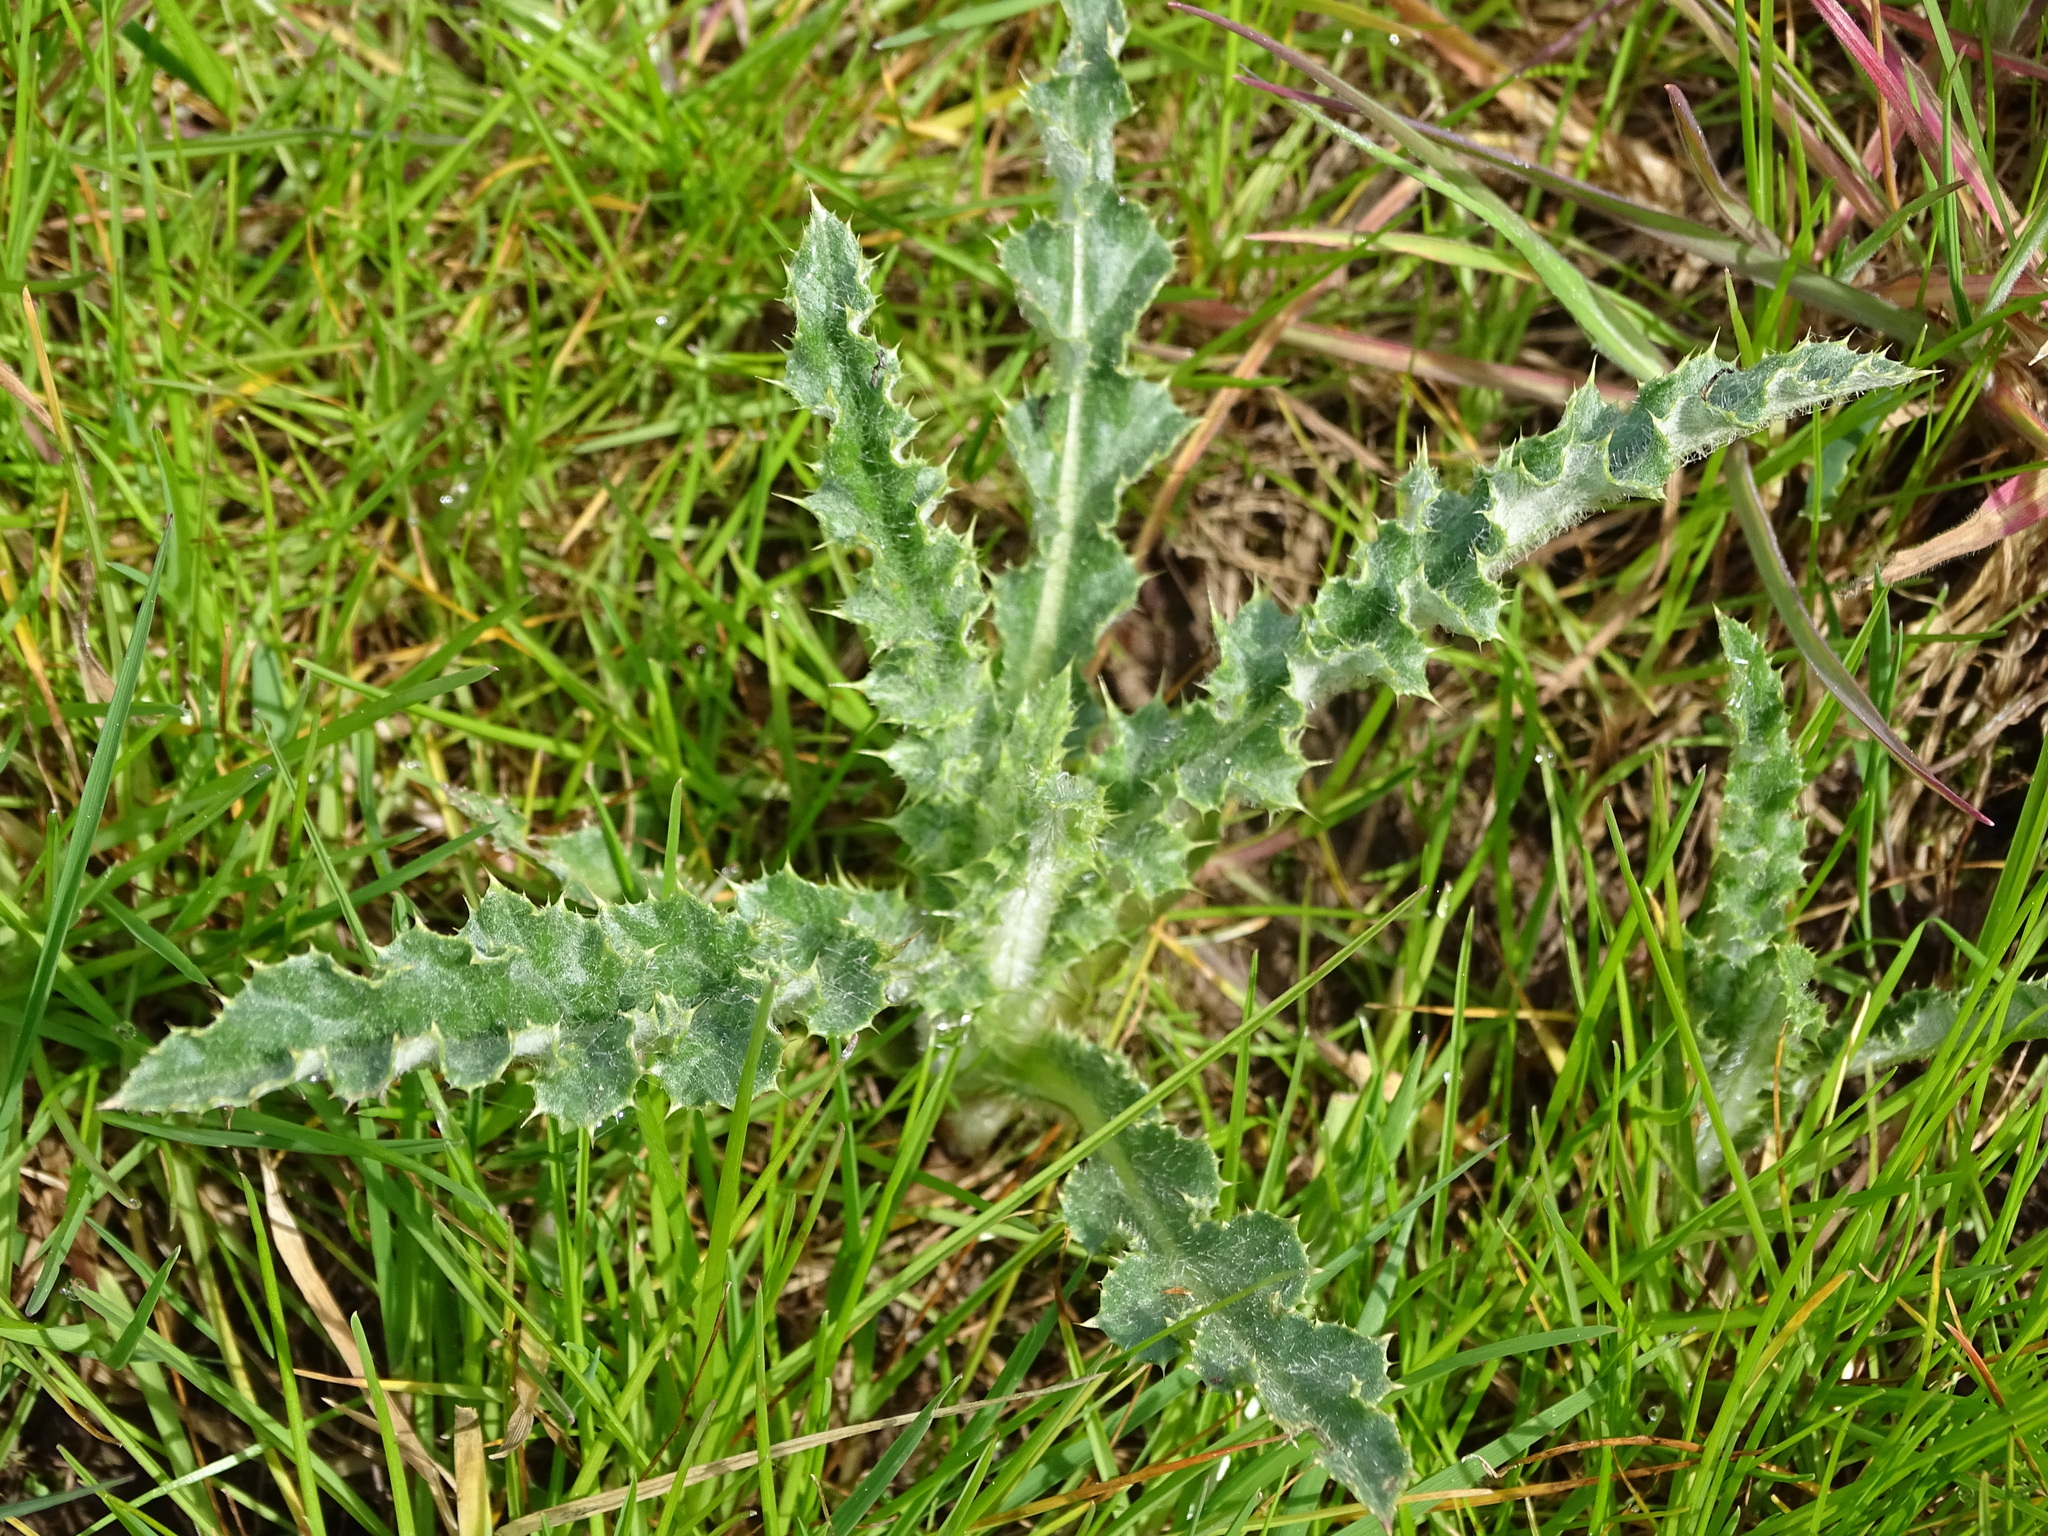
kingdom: Plantae
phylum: Tracheophyta
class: Magnoliopsida
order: Asterales
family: Asteraceae
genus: Cirsium
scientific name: Cirsium arvense
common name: Creeping thistle
